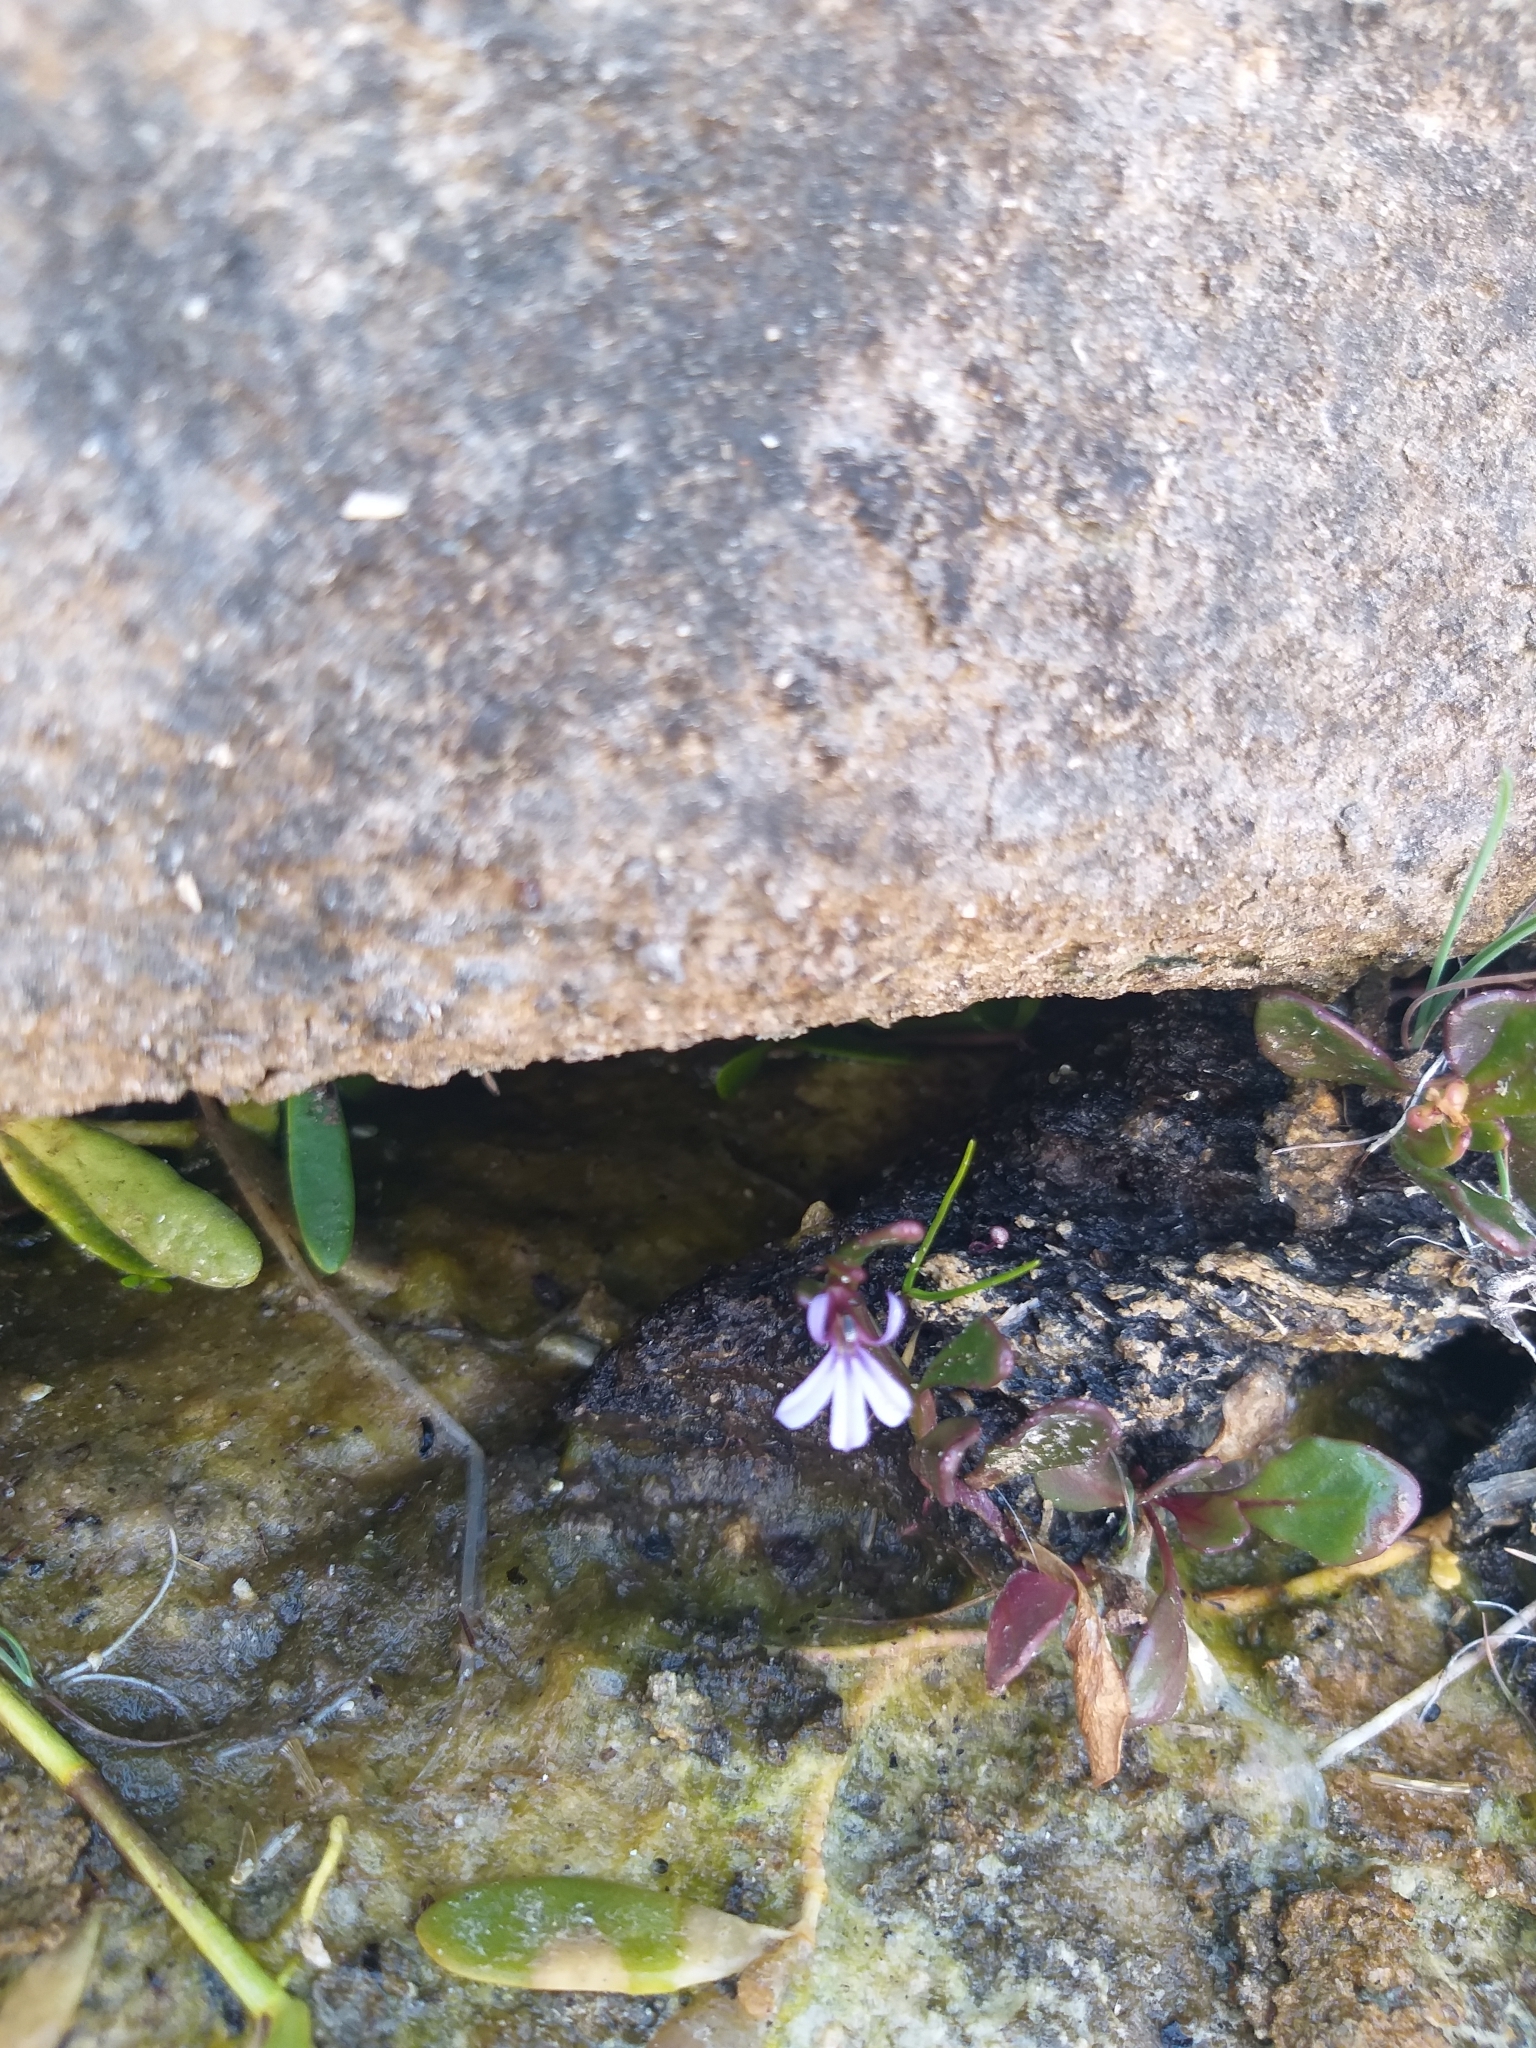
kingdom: Plantae
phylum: Tracheophyta
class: Magnoliopsida
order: Asterales
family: Campanulaceae
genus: Lobelia
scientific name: Lobelia anceps
